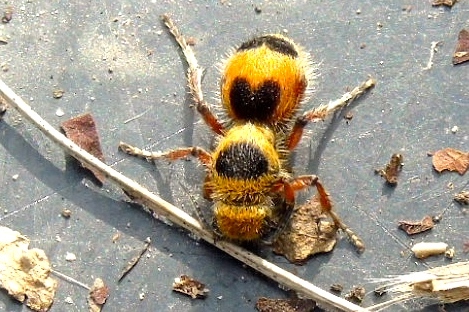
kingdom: Animalia
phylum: Arthropoda
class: Insecta
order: Hymenoptera
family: Mutillidae
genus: Dasymutilla
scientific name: Dasymutilla
